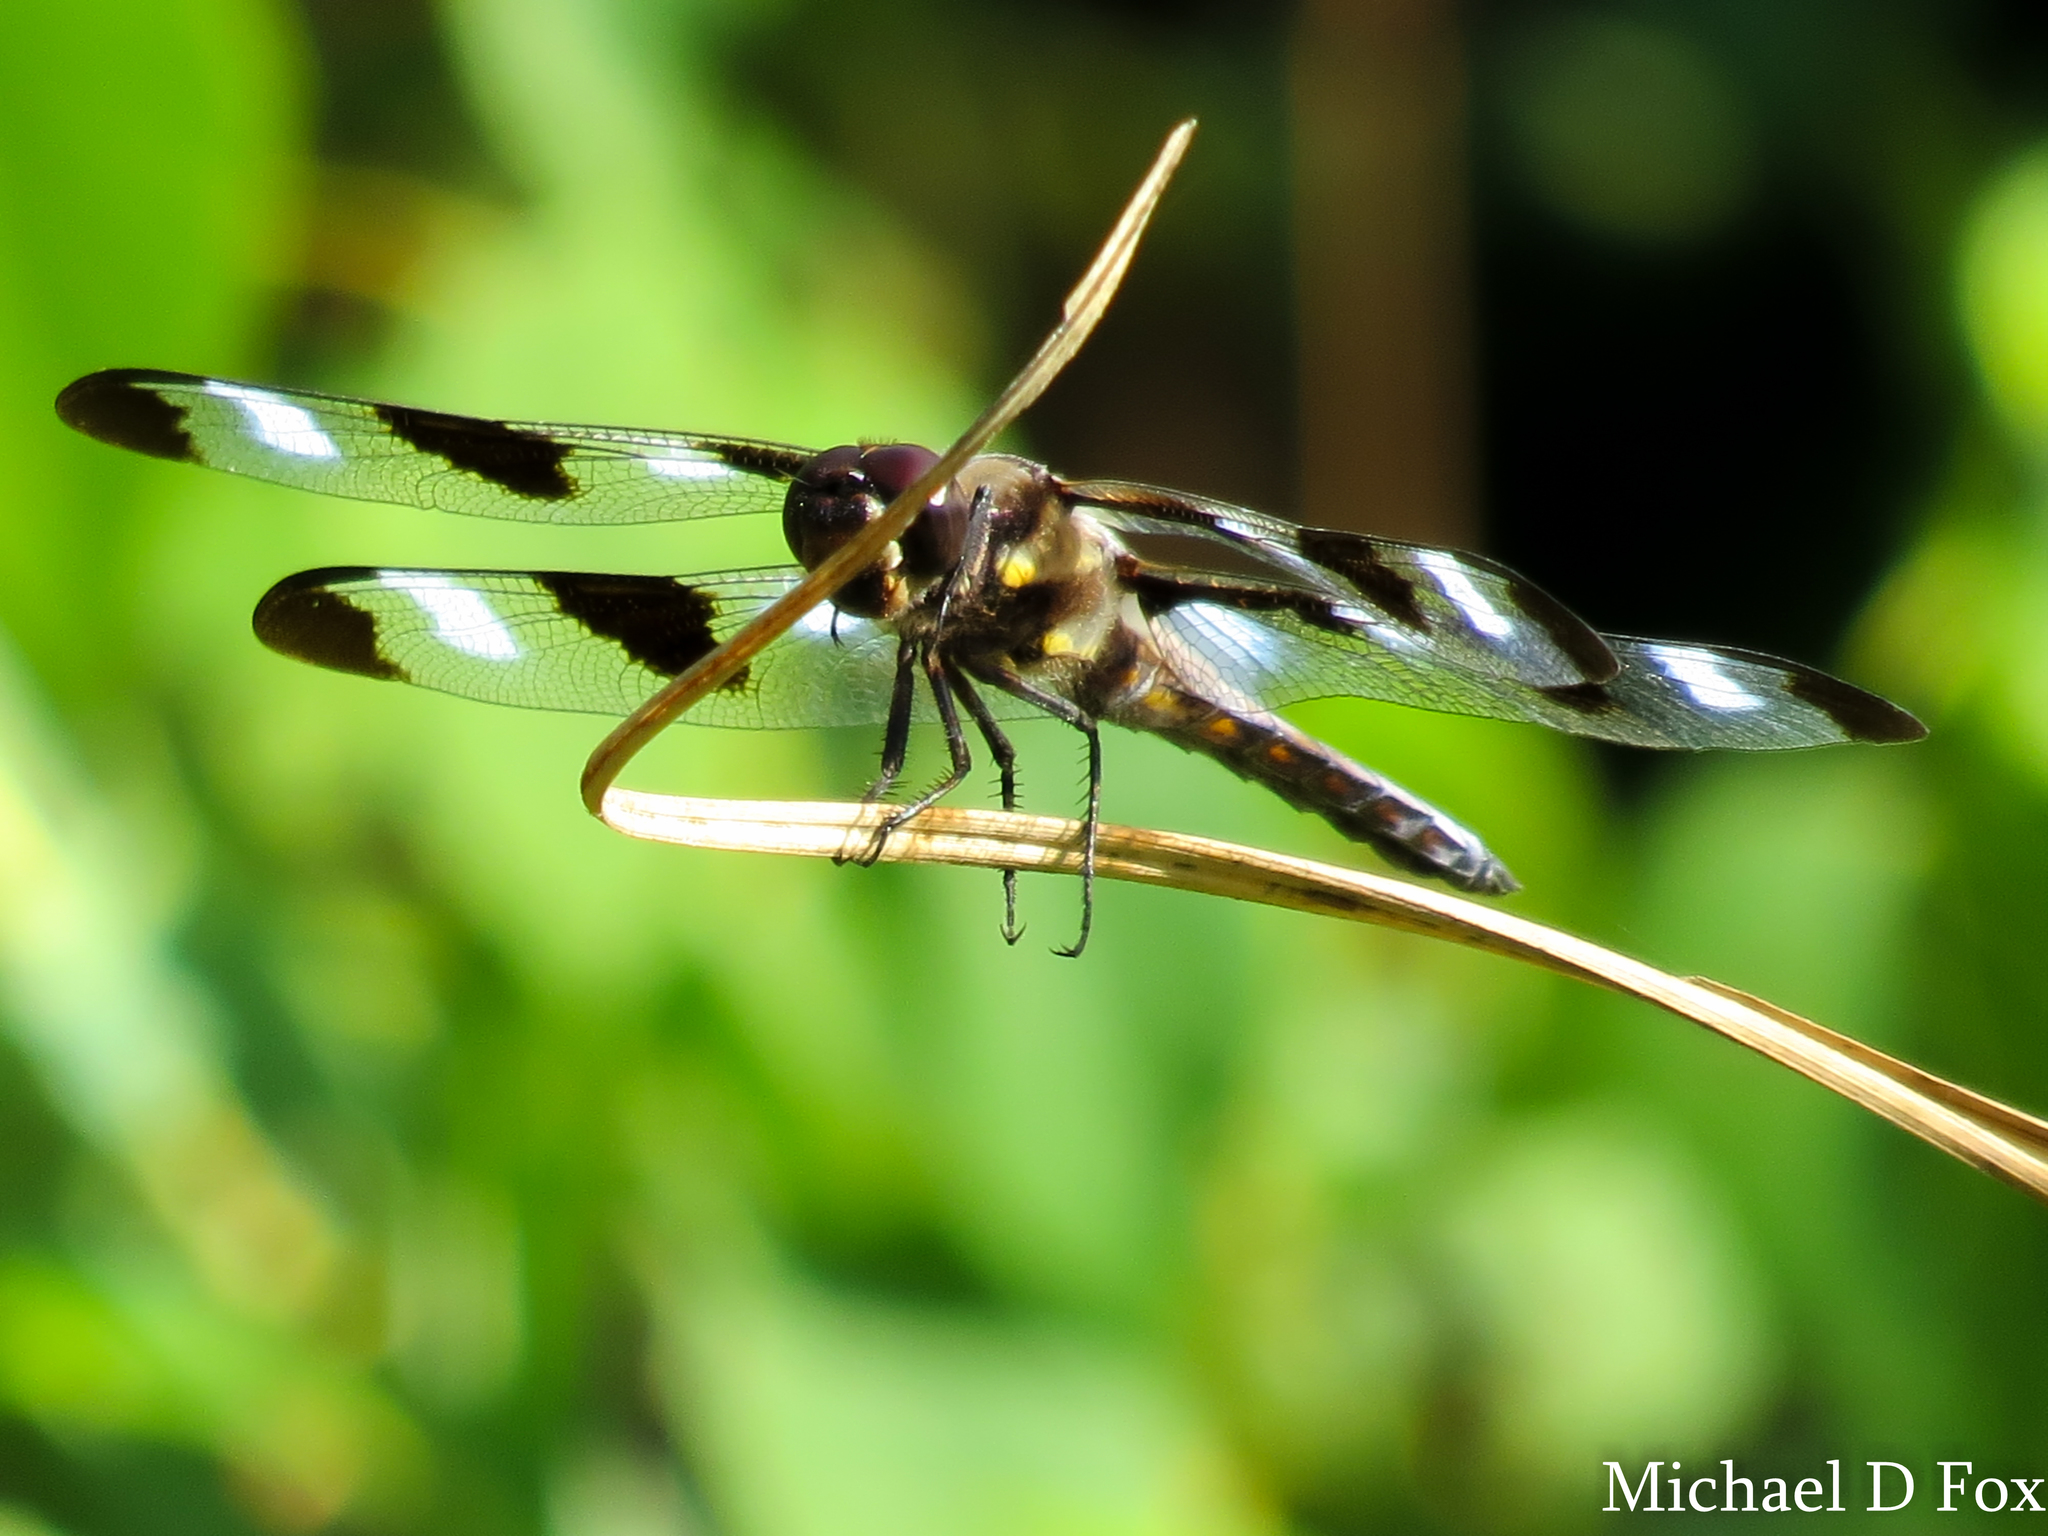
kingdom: Animalia
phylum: Arthropoda
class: Insecta
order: Odonata
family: Libellulidae
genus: Libellula
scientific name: Libellula pulchella
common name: Twelve-spotted skimmer
